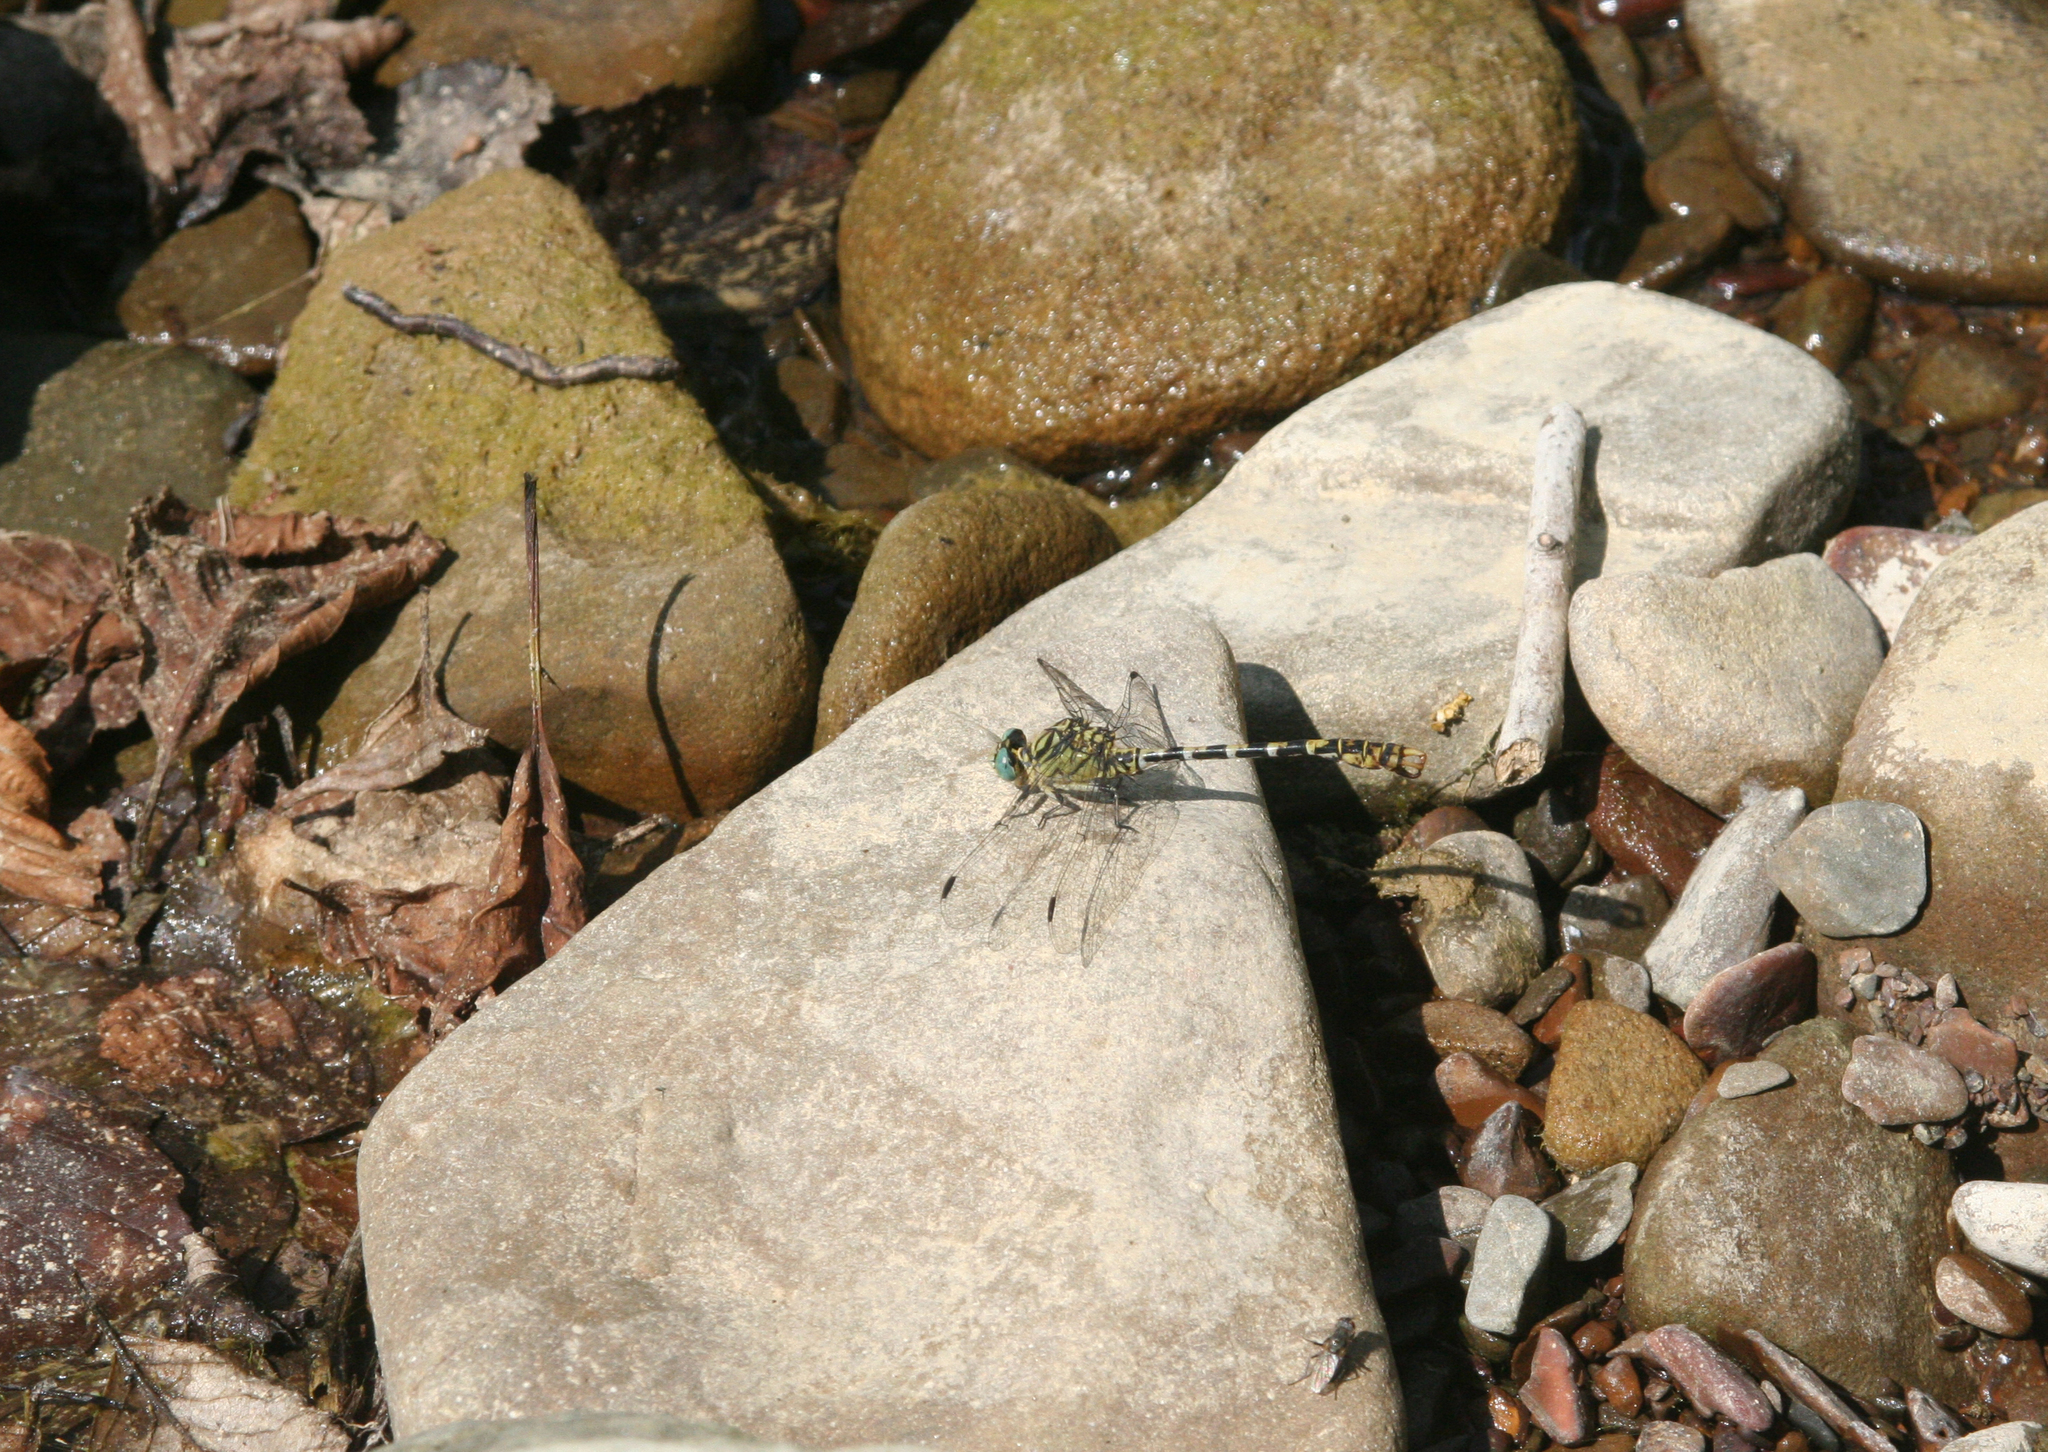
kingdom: Animalia
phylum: Arthropoda
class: Insecta
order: Odonata
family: Gomphidae
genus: Onychogomphus
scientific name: Onychogomphus forcipatus
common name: Small pincertail
